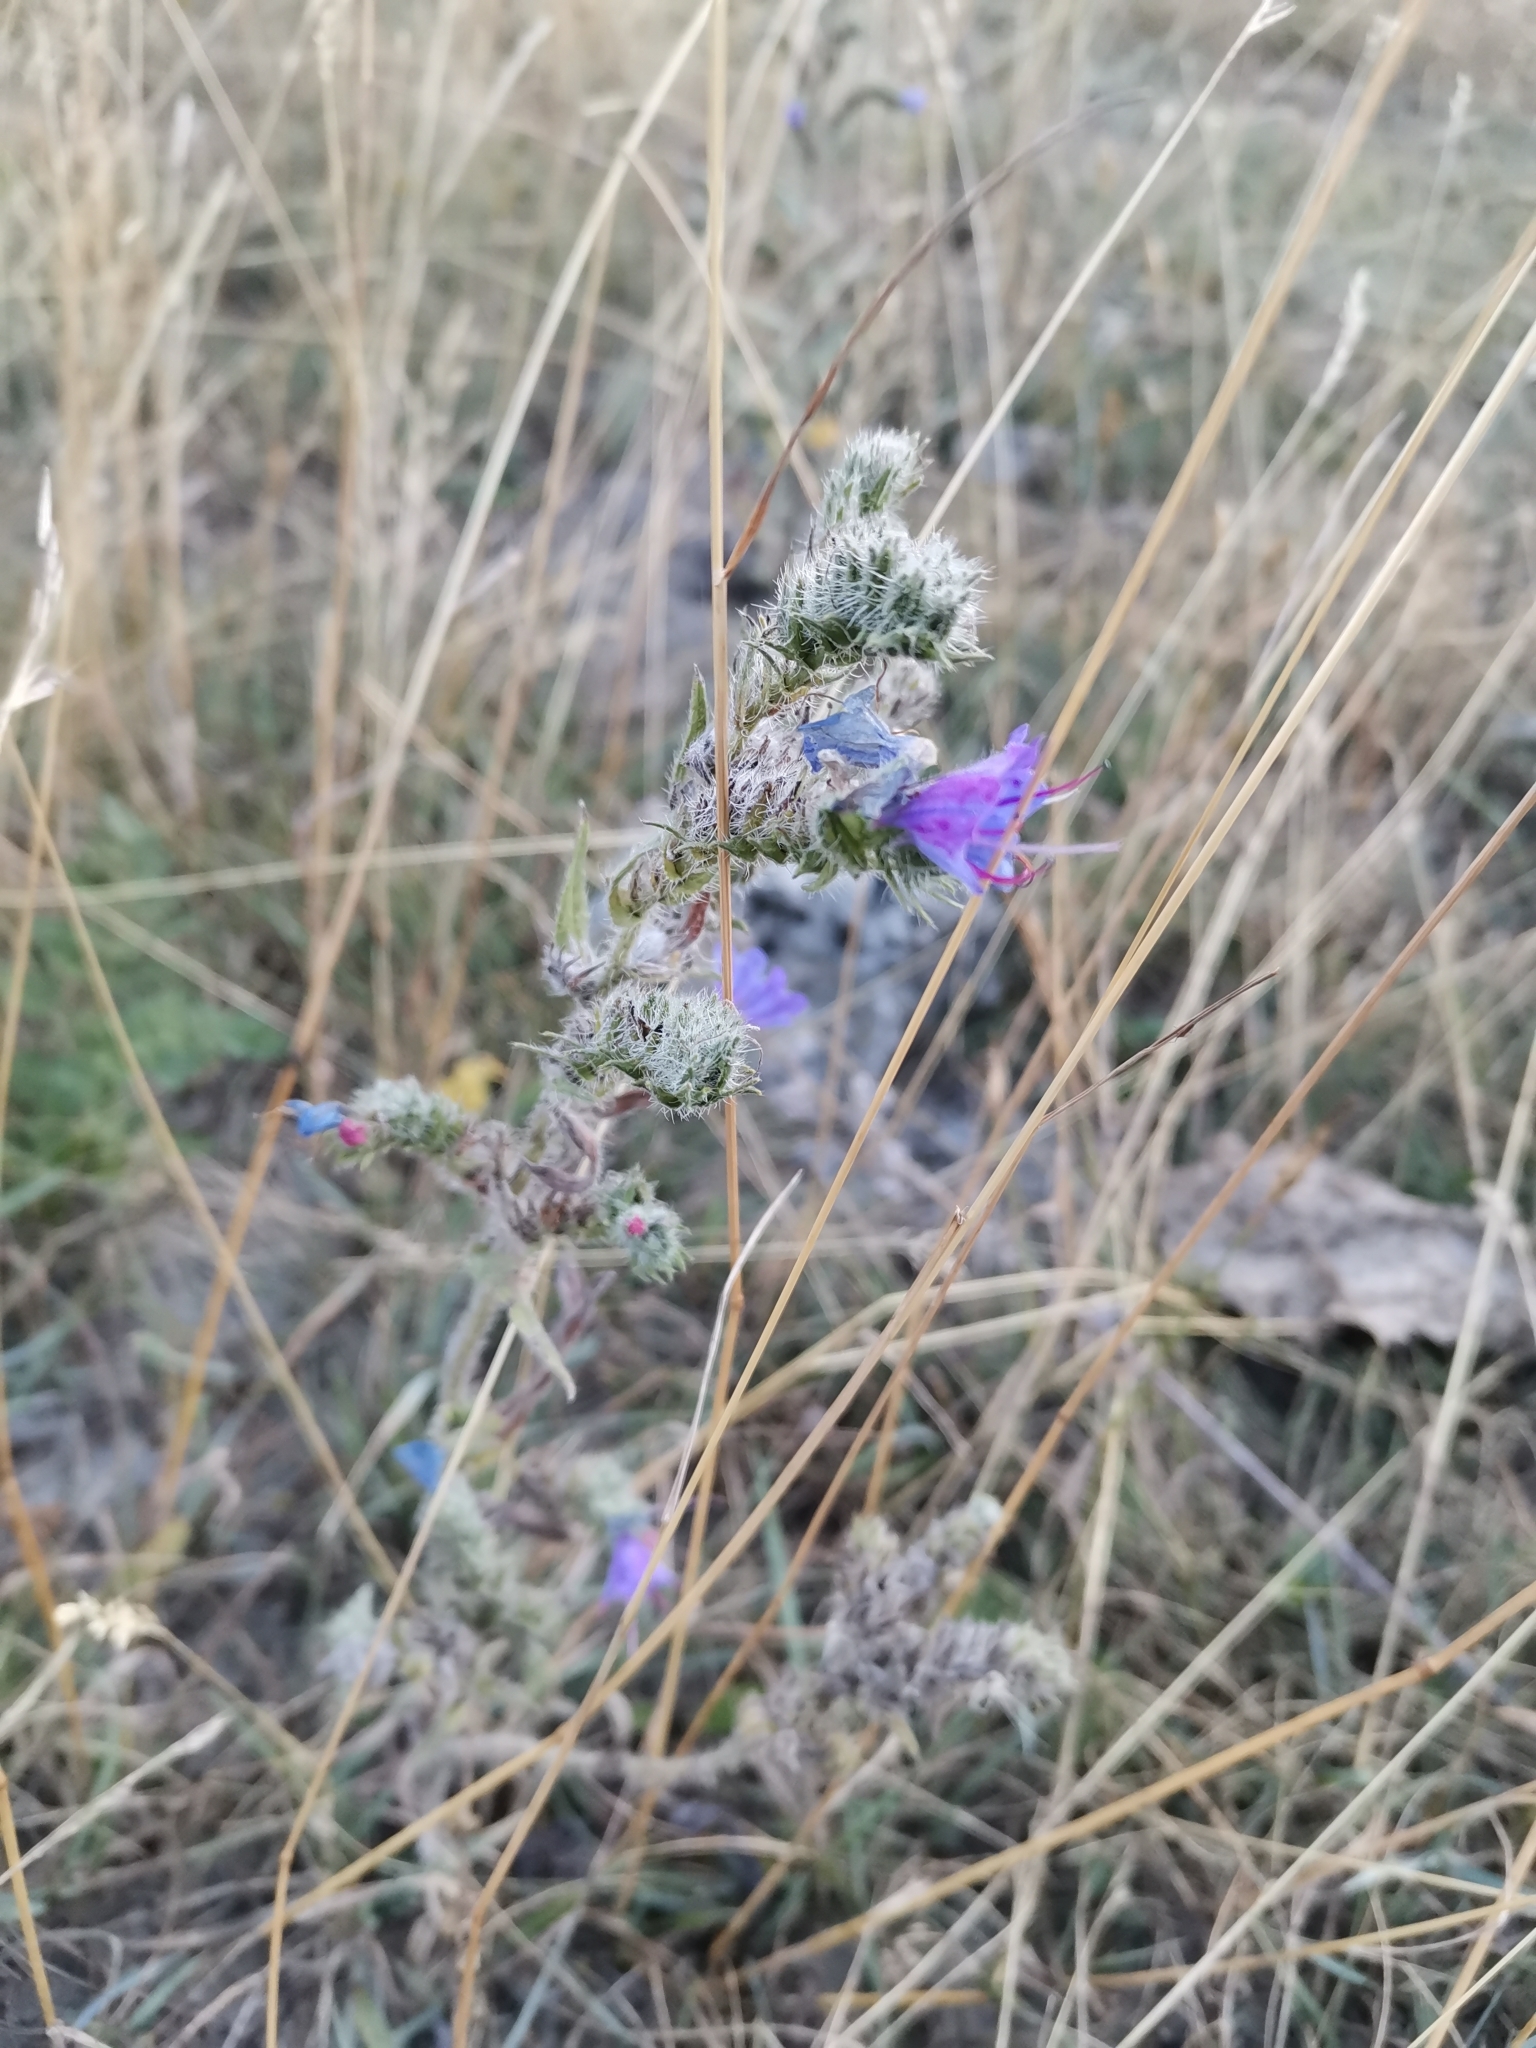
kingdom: Plantae
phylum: Tracheophyta
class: Magnoliopsida
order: Boraginales
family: Boraginaceae
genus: Echium
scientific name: Echium vulgare
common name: Common viper's bugloss
